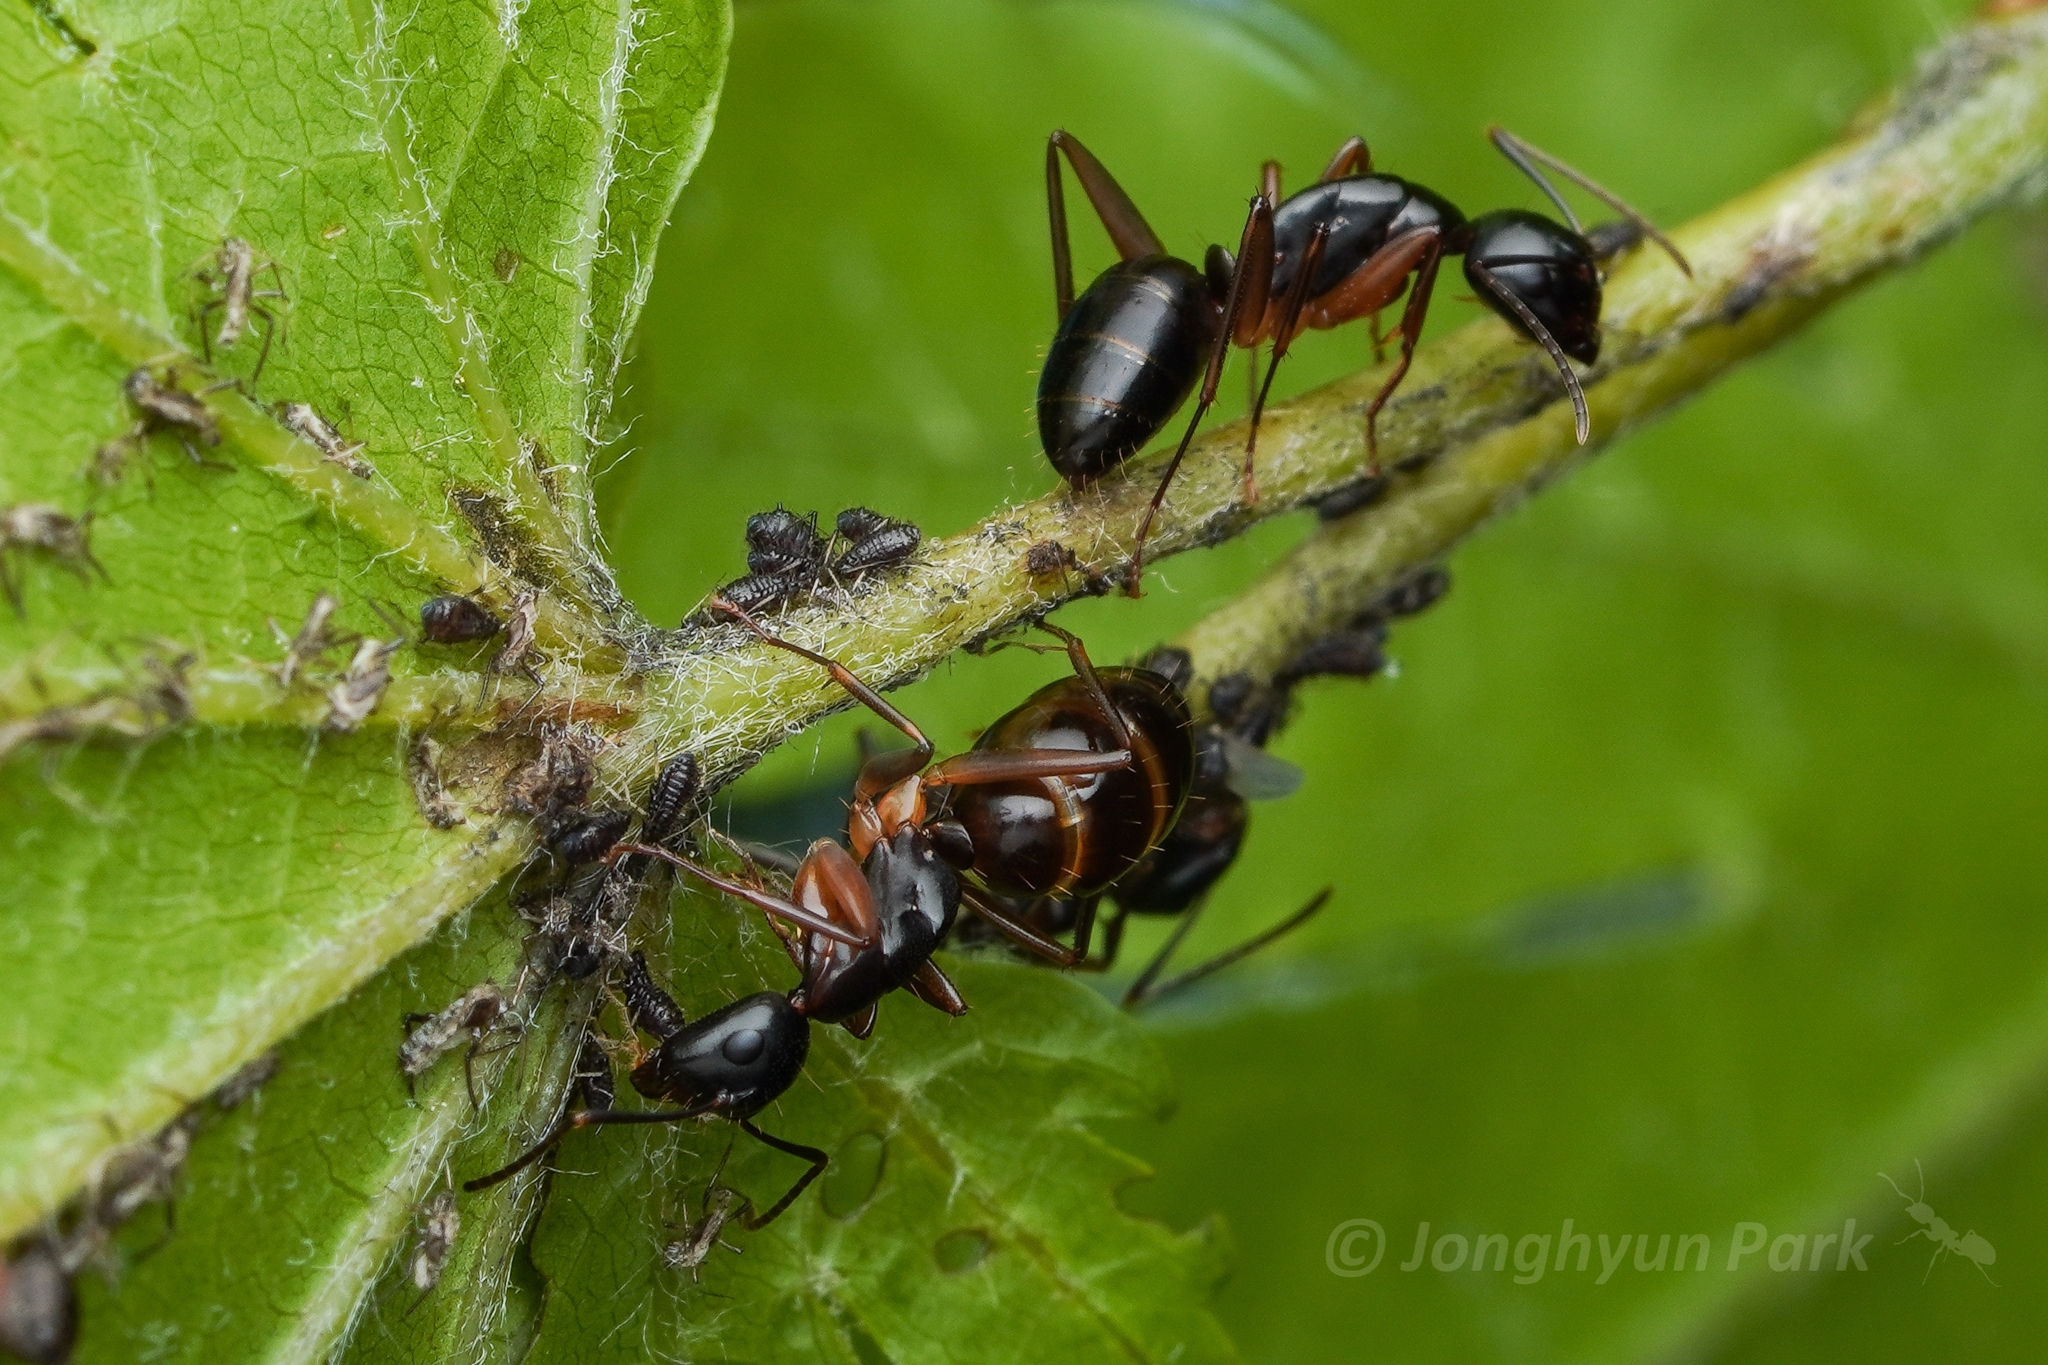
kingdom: Animalia
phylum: Arthropoda
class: Insecta
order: Hymenoptera
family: Formicidae
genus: Camponotus
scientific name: Camponotus kiusiuensis
